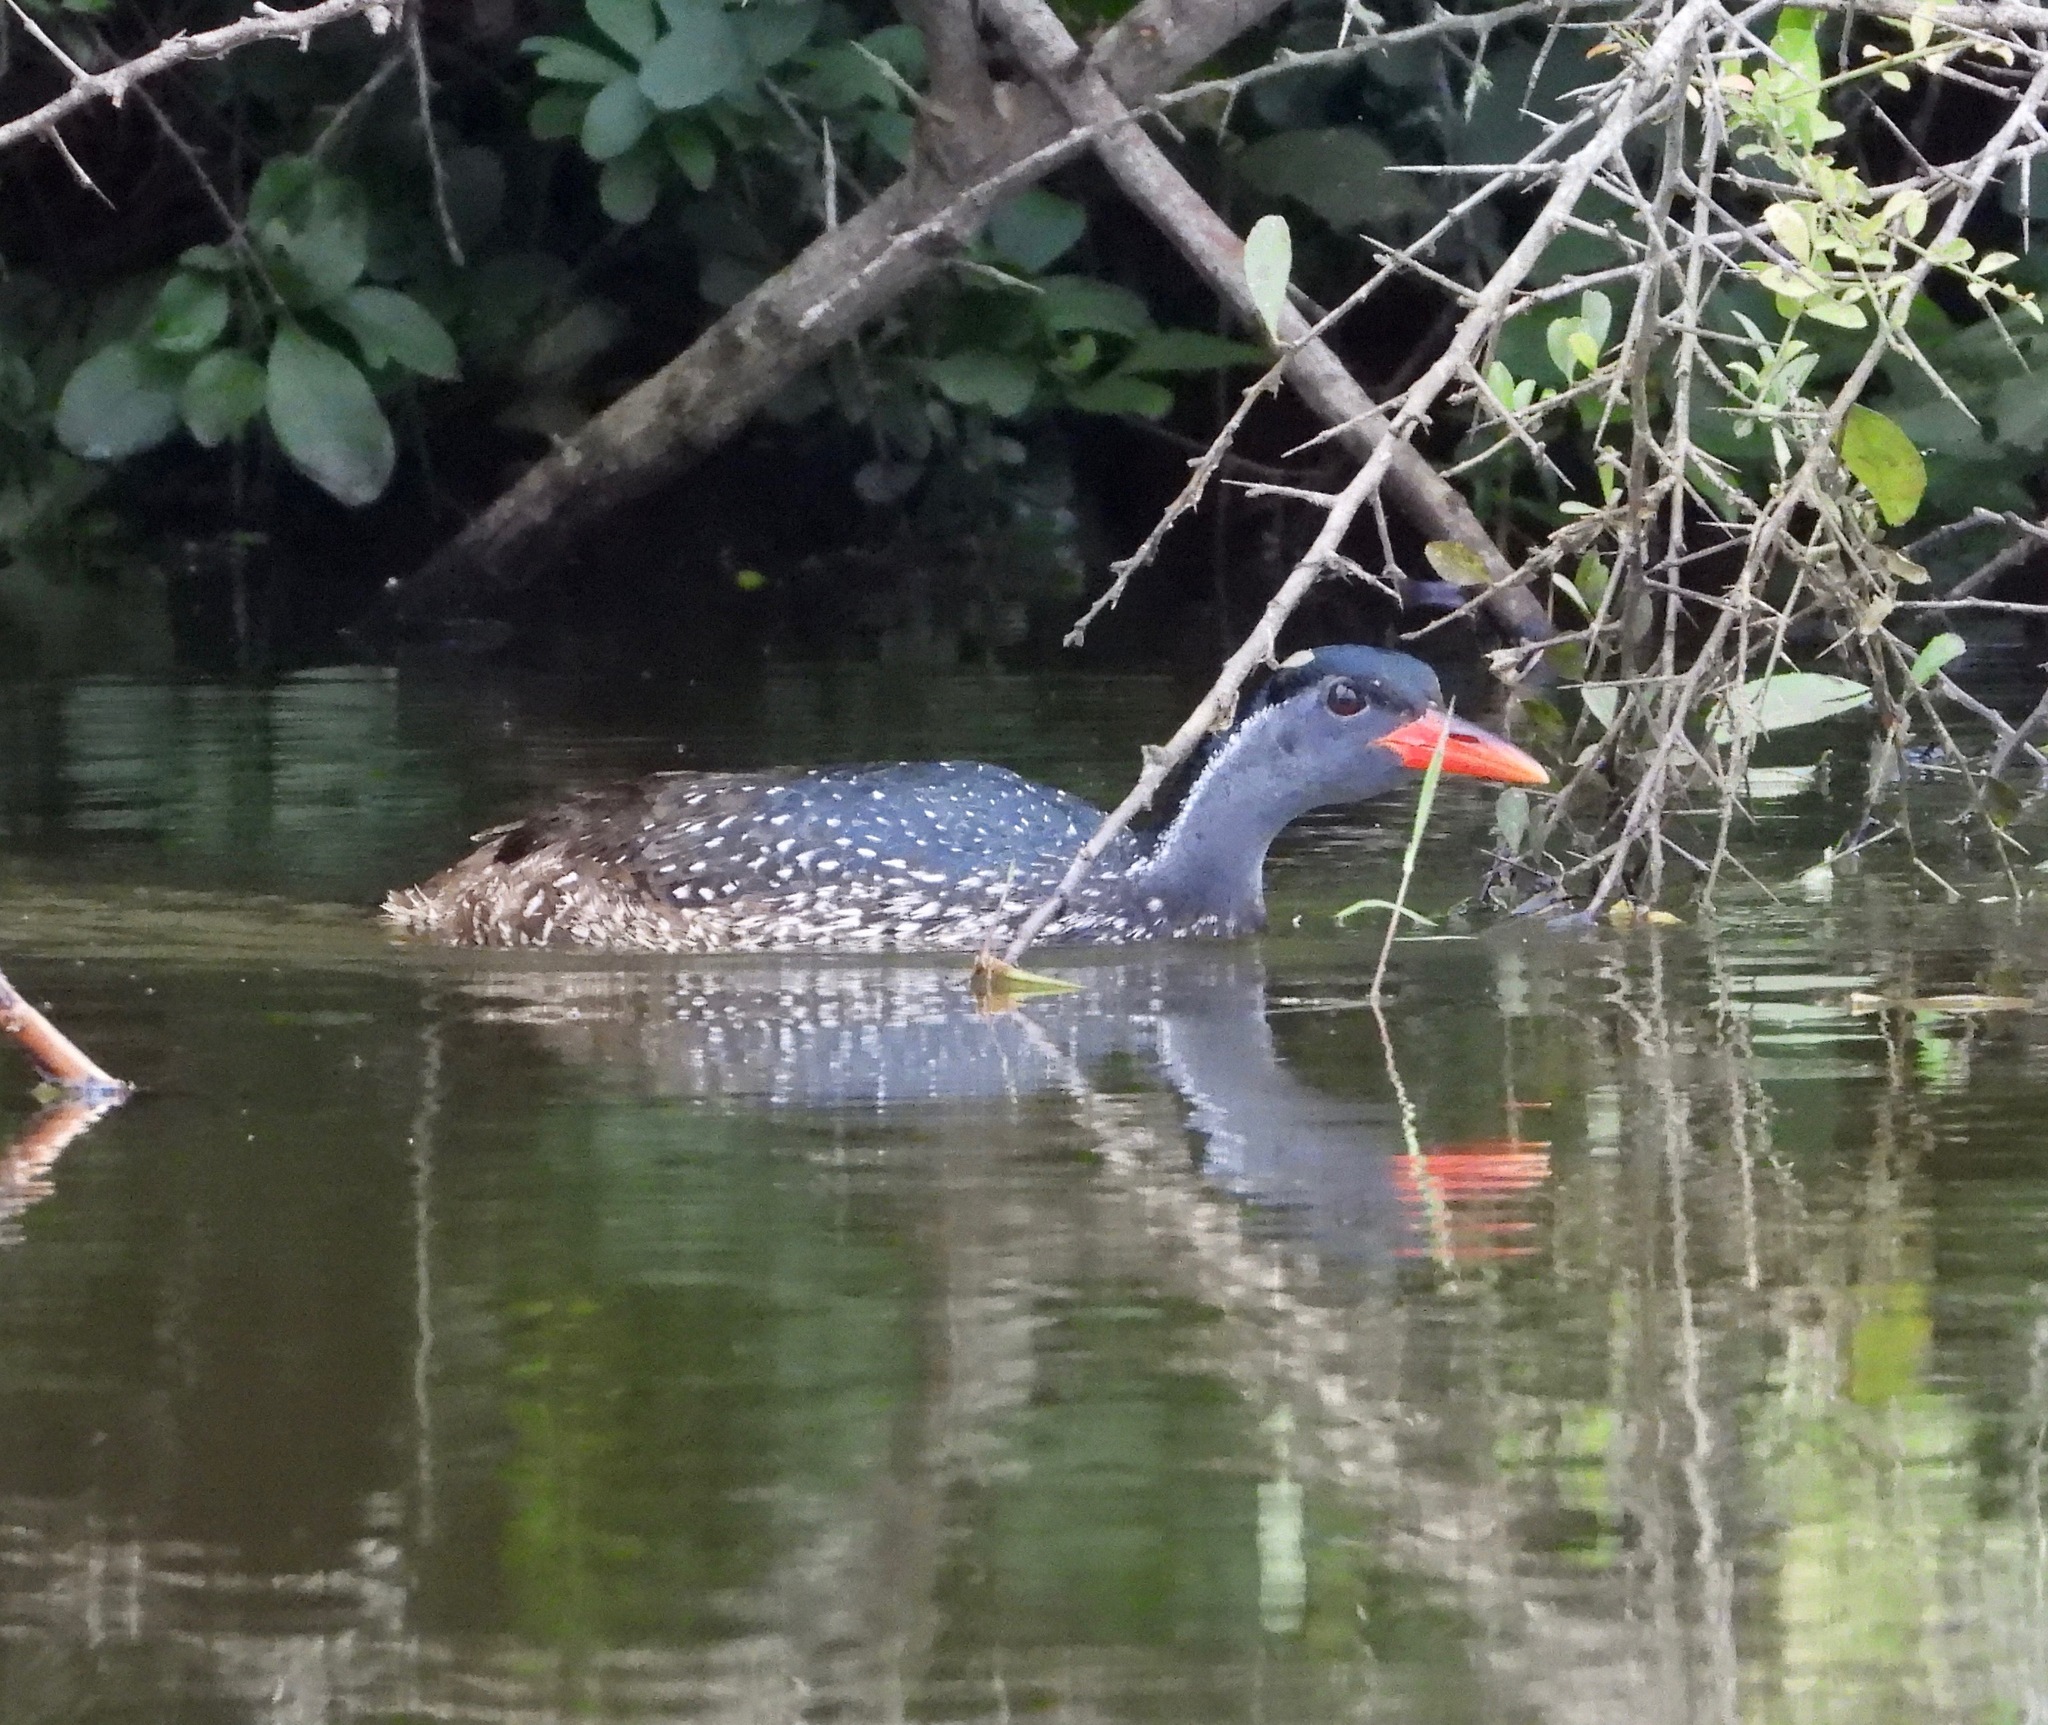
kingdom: Animalia
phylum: Chordata
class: Aves
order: Gruiformes
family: Heliornithidae
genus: Podica
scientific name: Podica senegalensis
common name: African finfoot
